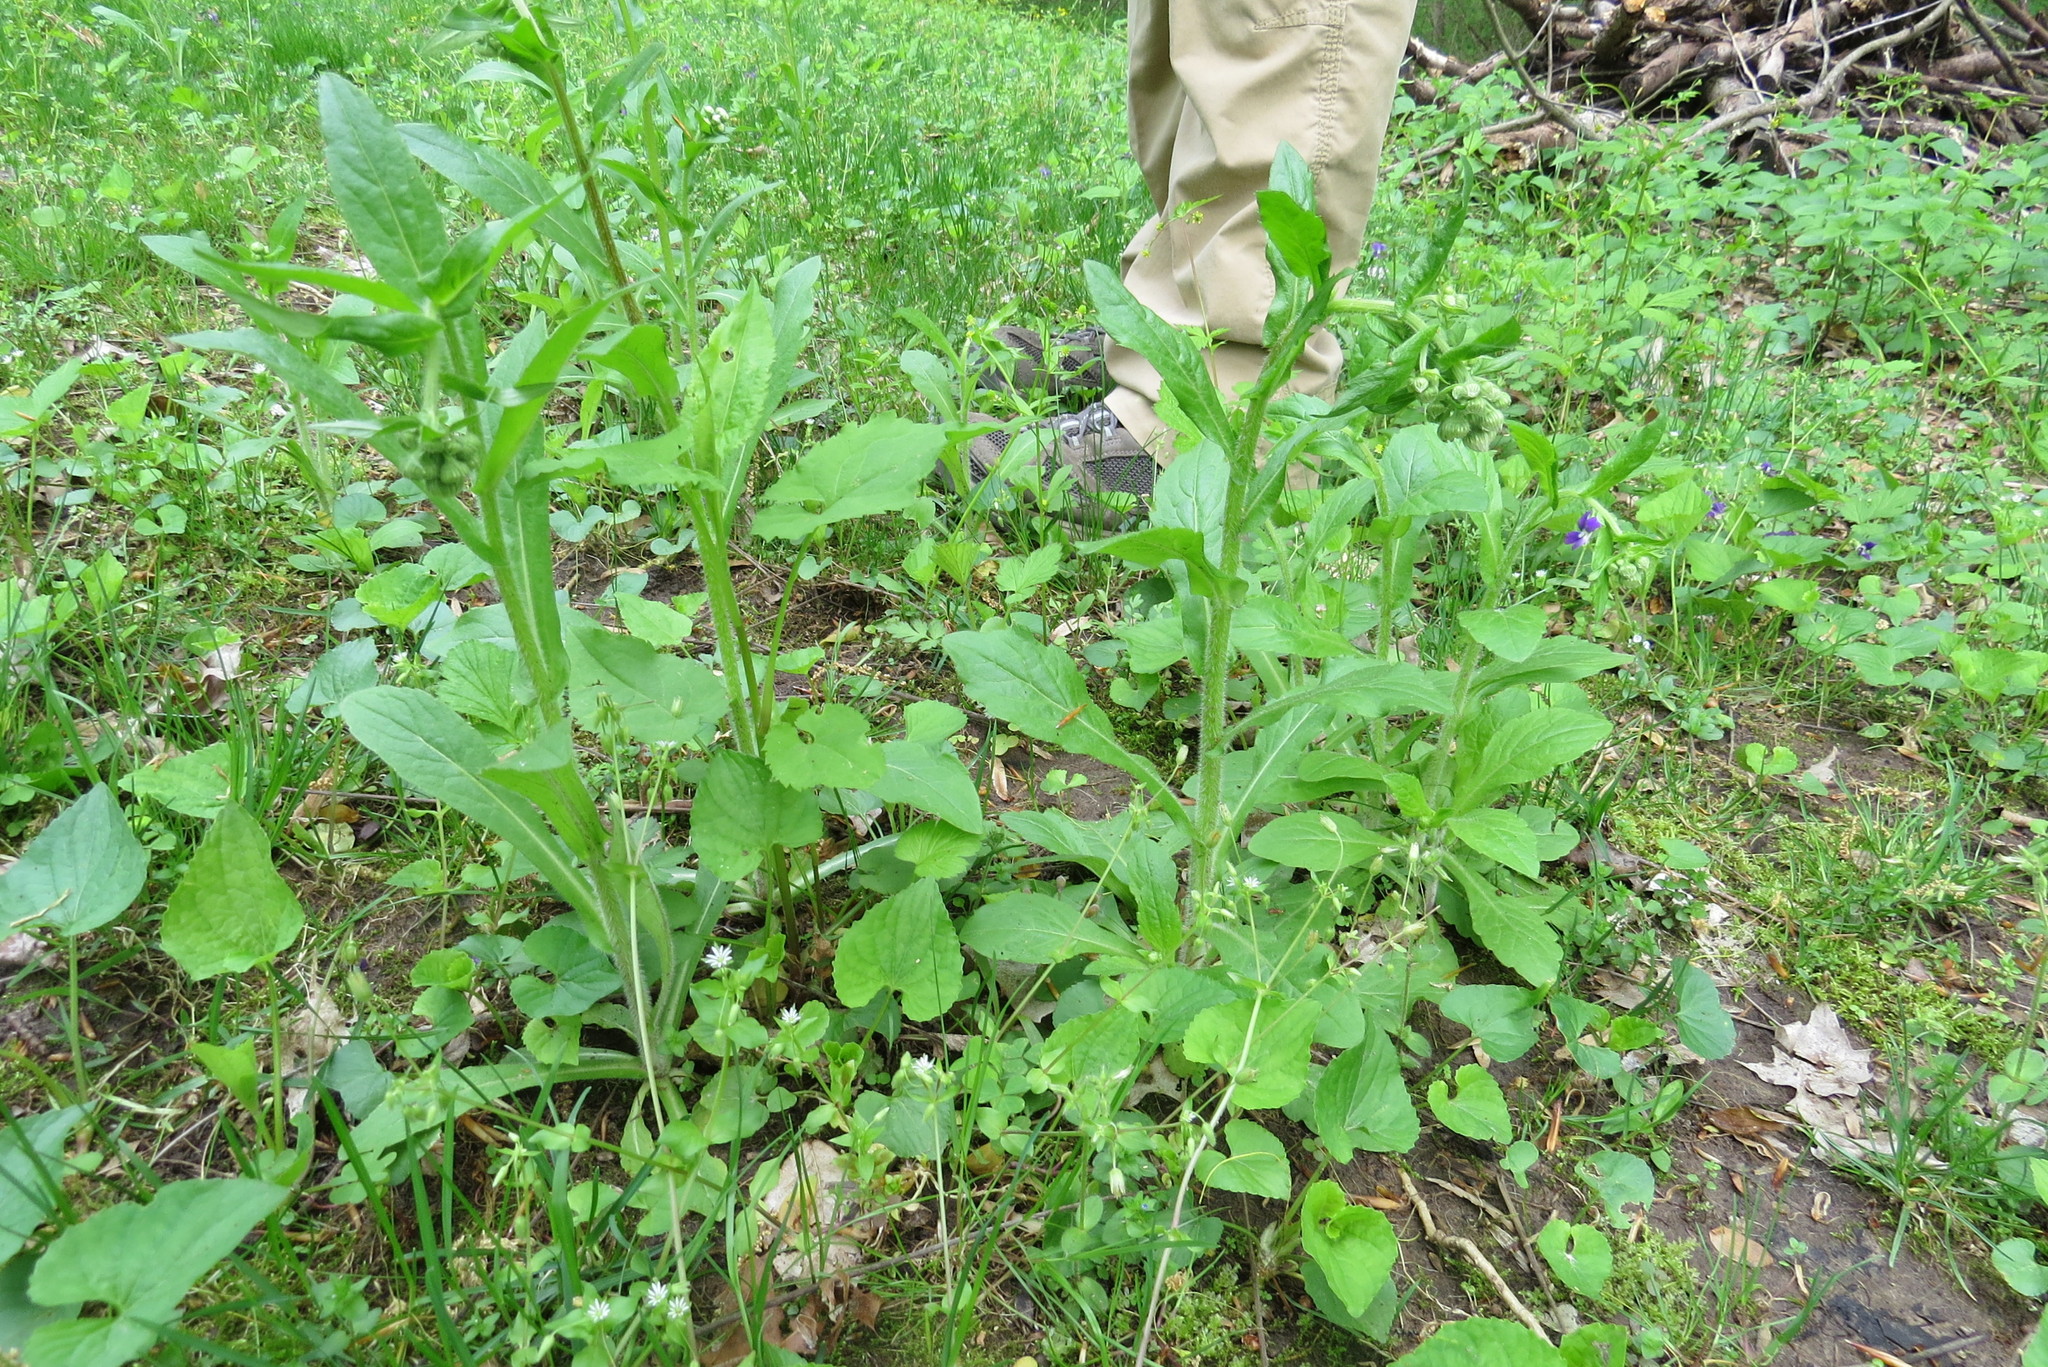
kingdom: Plantae
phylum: Tracheophyta
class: Magnoliopsida
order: Asterales
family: Asteraceae
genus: Erigeron
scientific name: Erigeron annuus
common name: Tall fleabane
